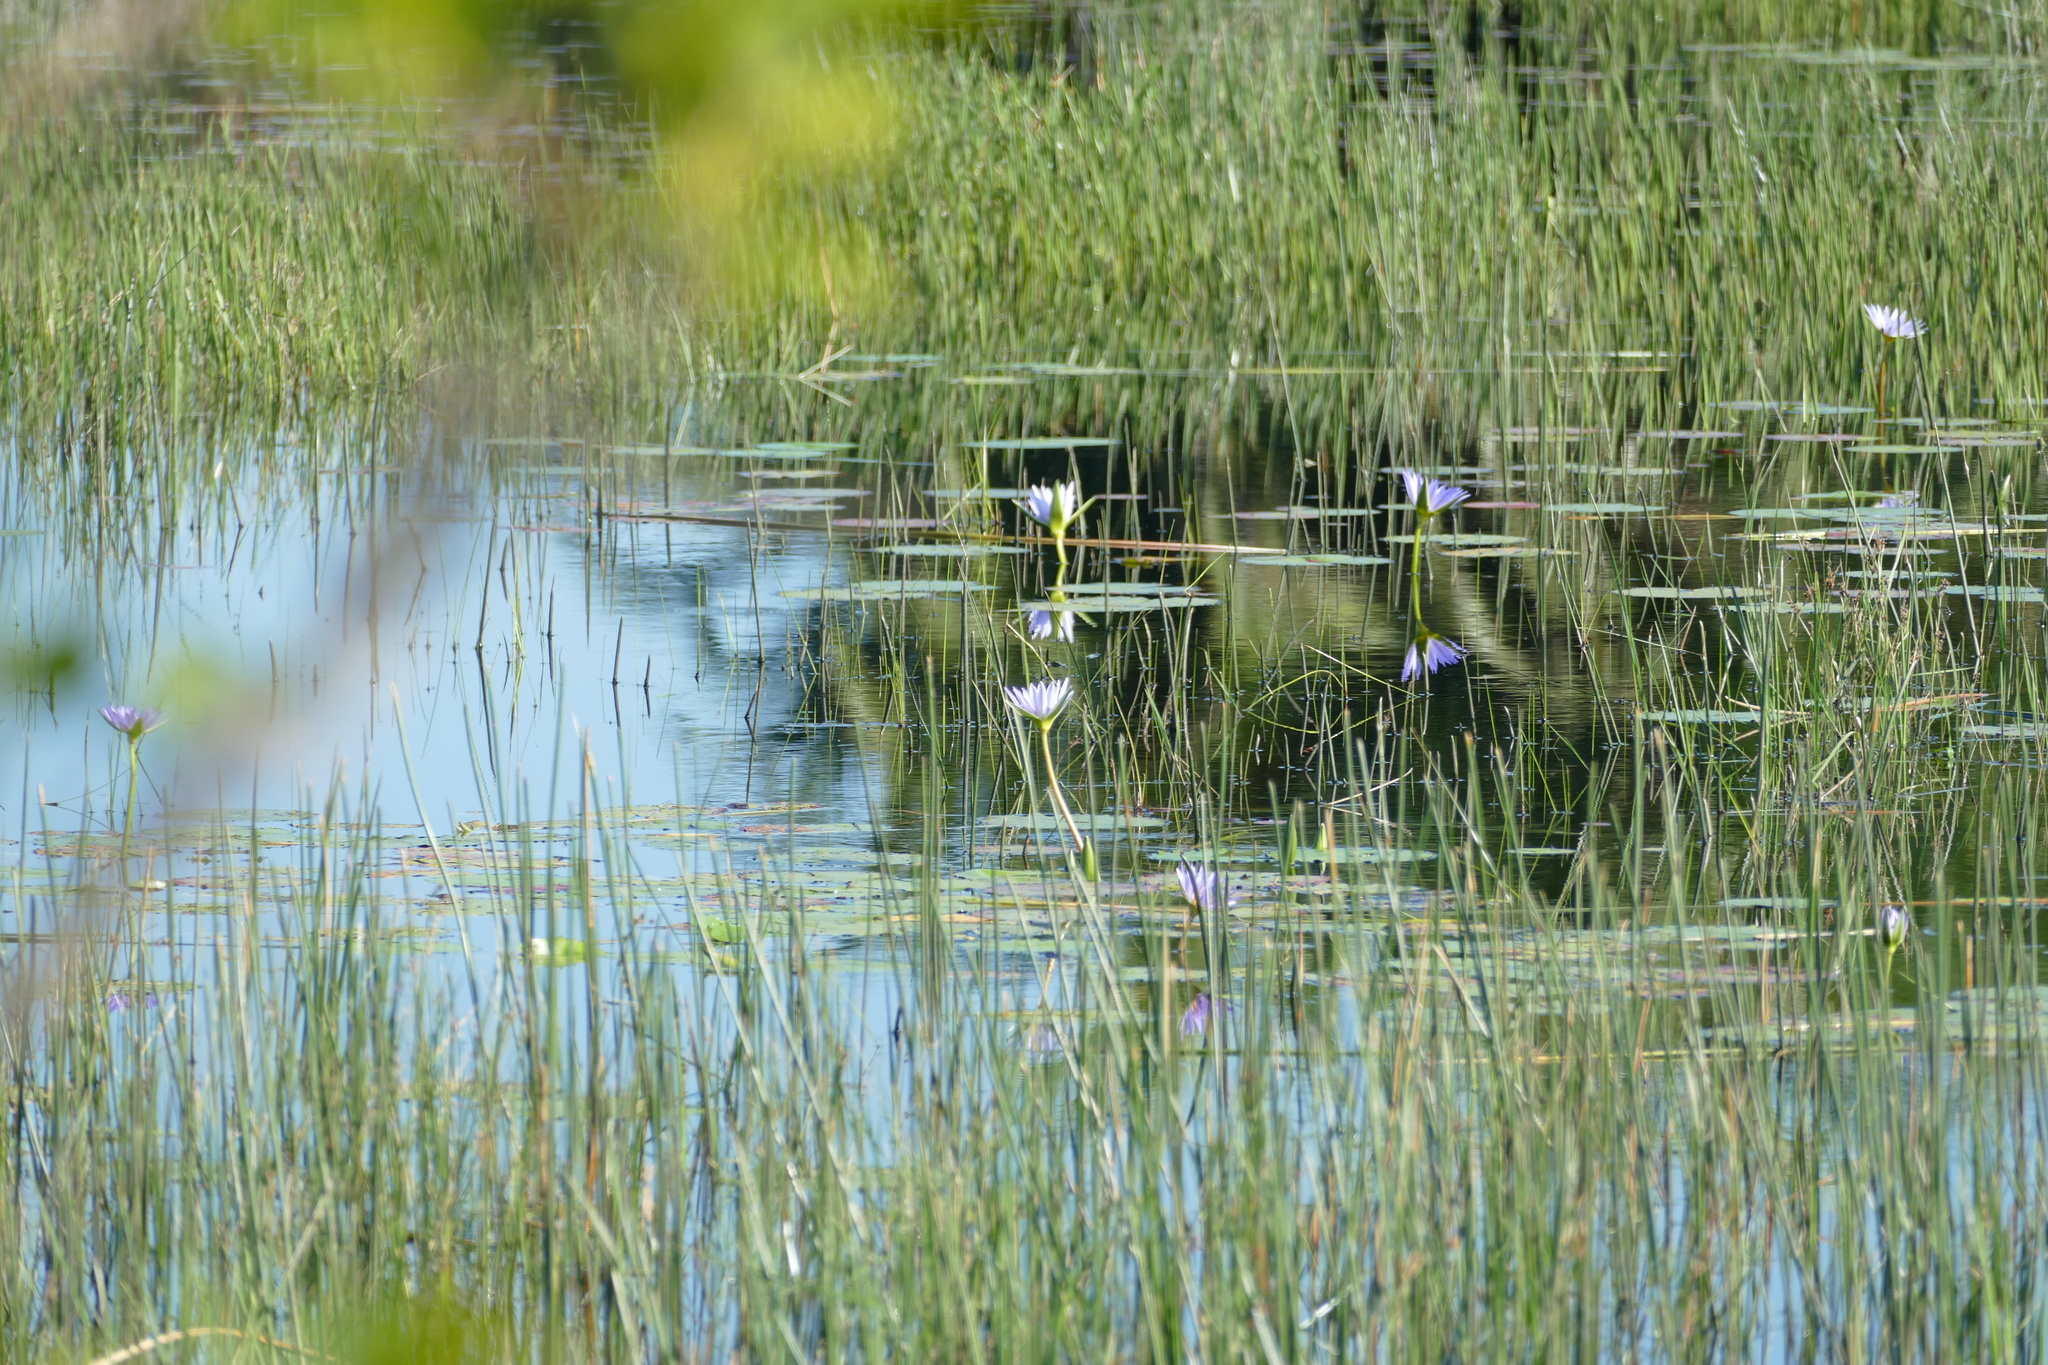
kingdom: Plantae
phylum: Tracheophyta
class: Magnoliopsida
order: Nymphaeales
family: Nymphaeaceae
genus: Nymphaea
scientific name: Nymphaea nouchali
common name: Blue lotus
